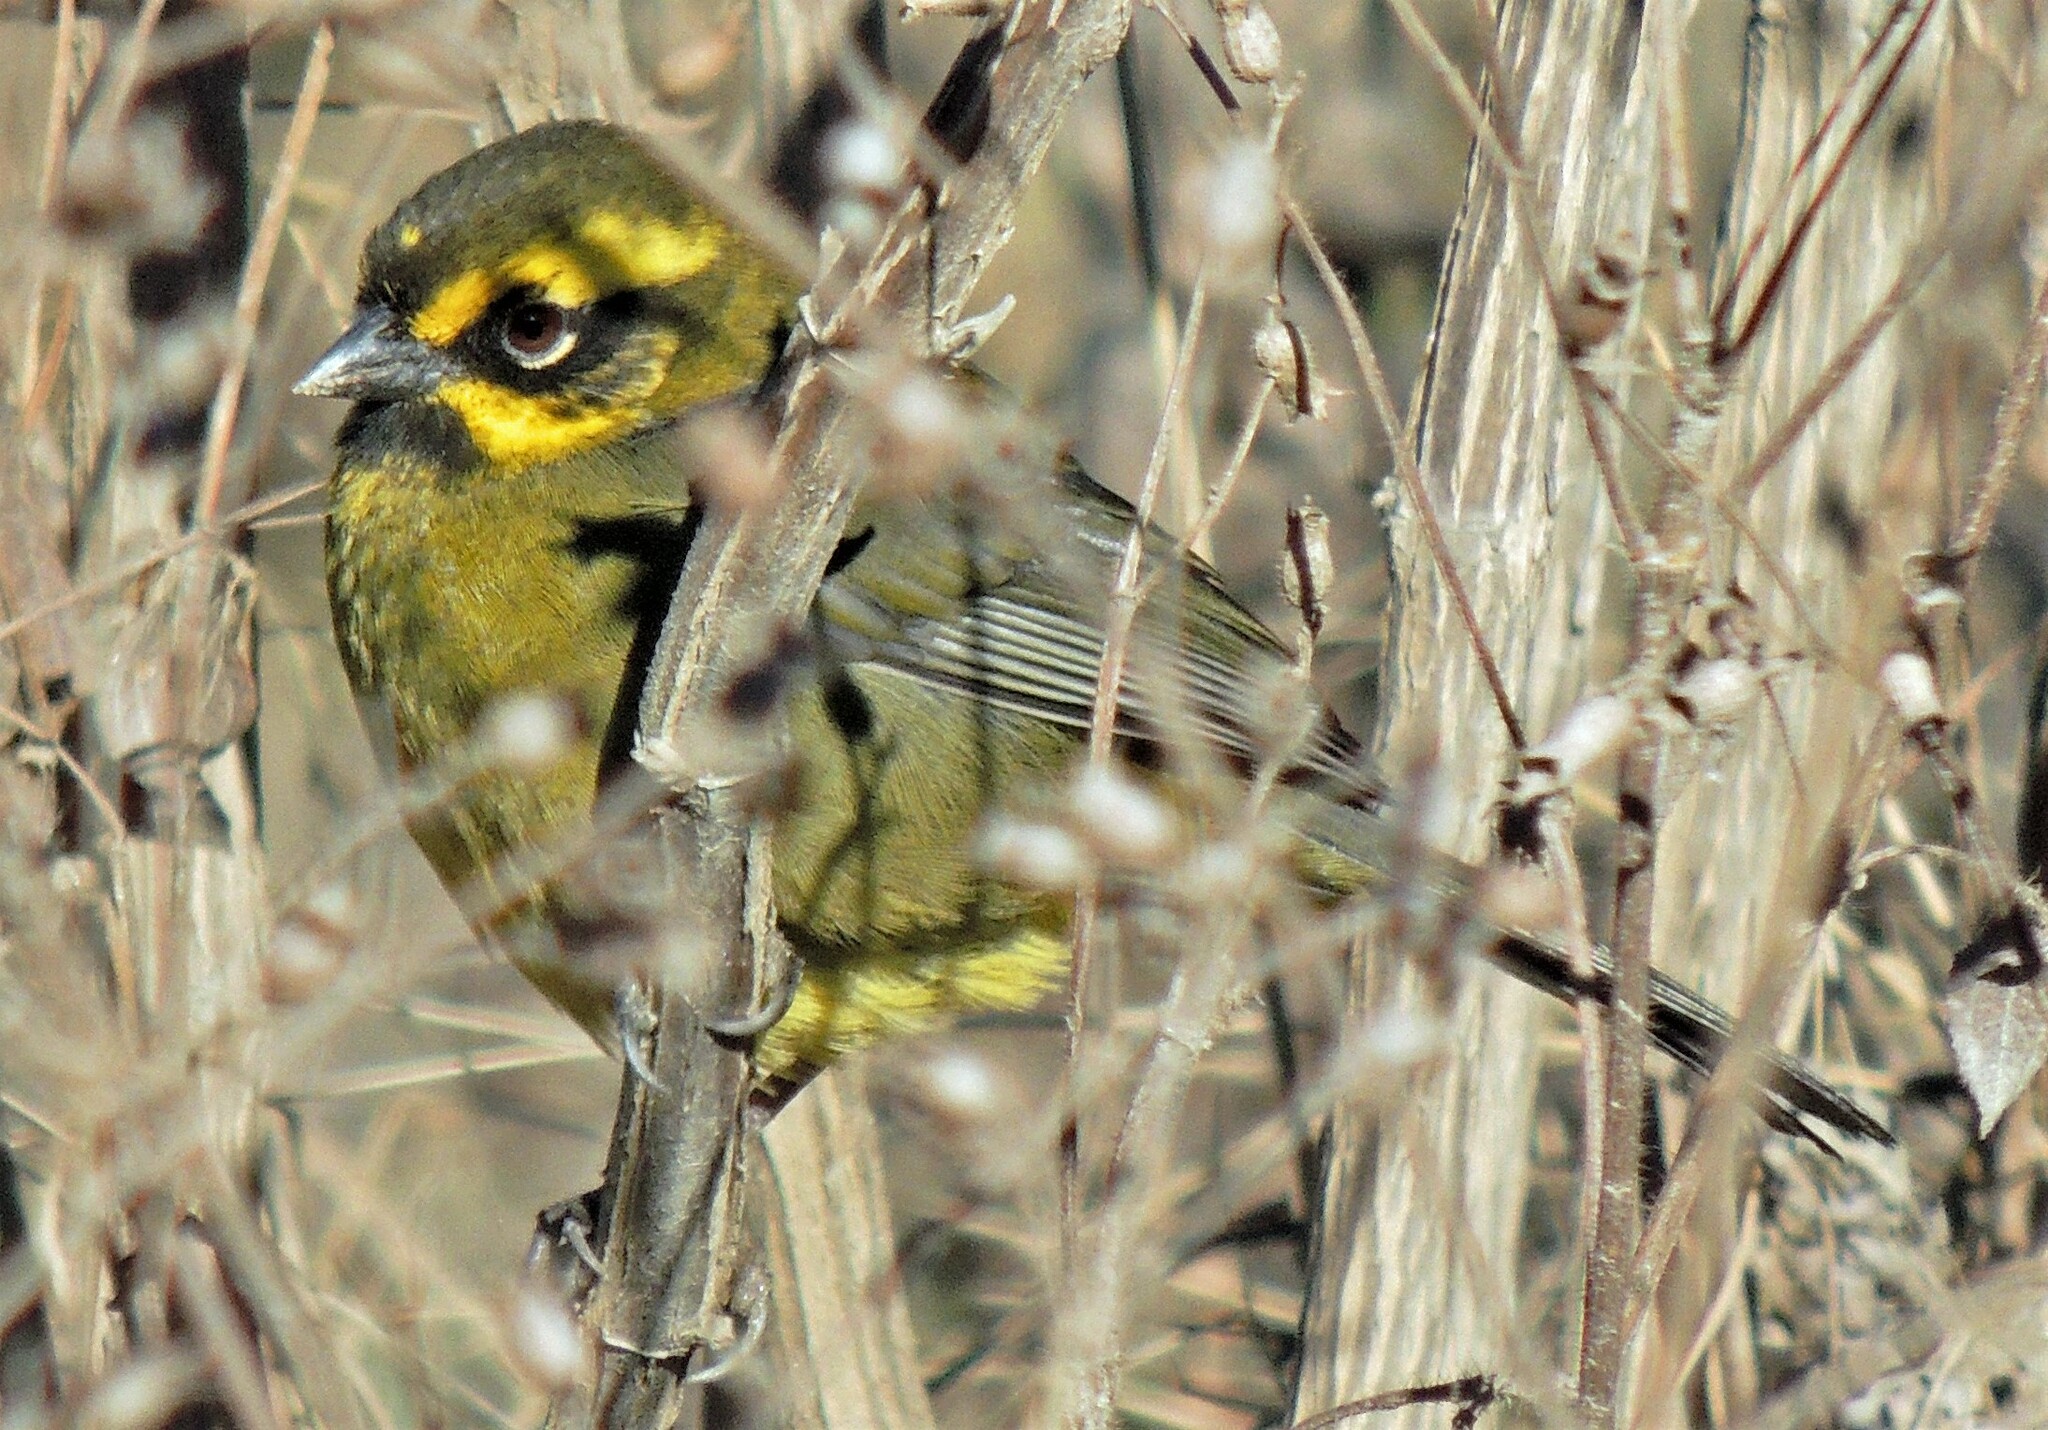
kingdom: Animalia
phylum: Chordata
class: Aves
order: Passeriformes
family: Passerellidae
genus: Atlapetes
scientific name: Atlapetes citrinellus
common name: Yellow-striped brushfinch
